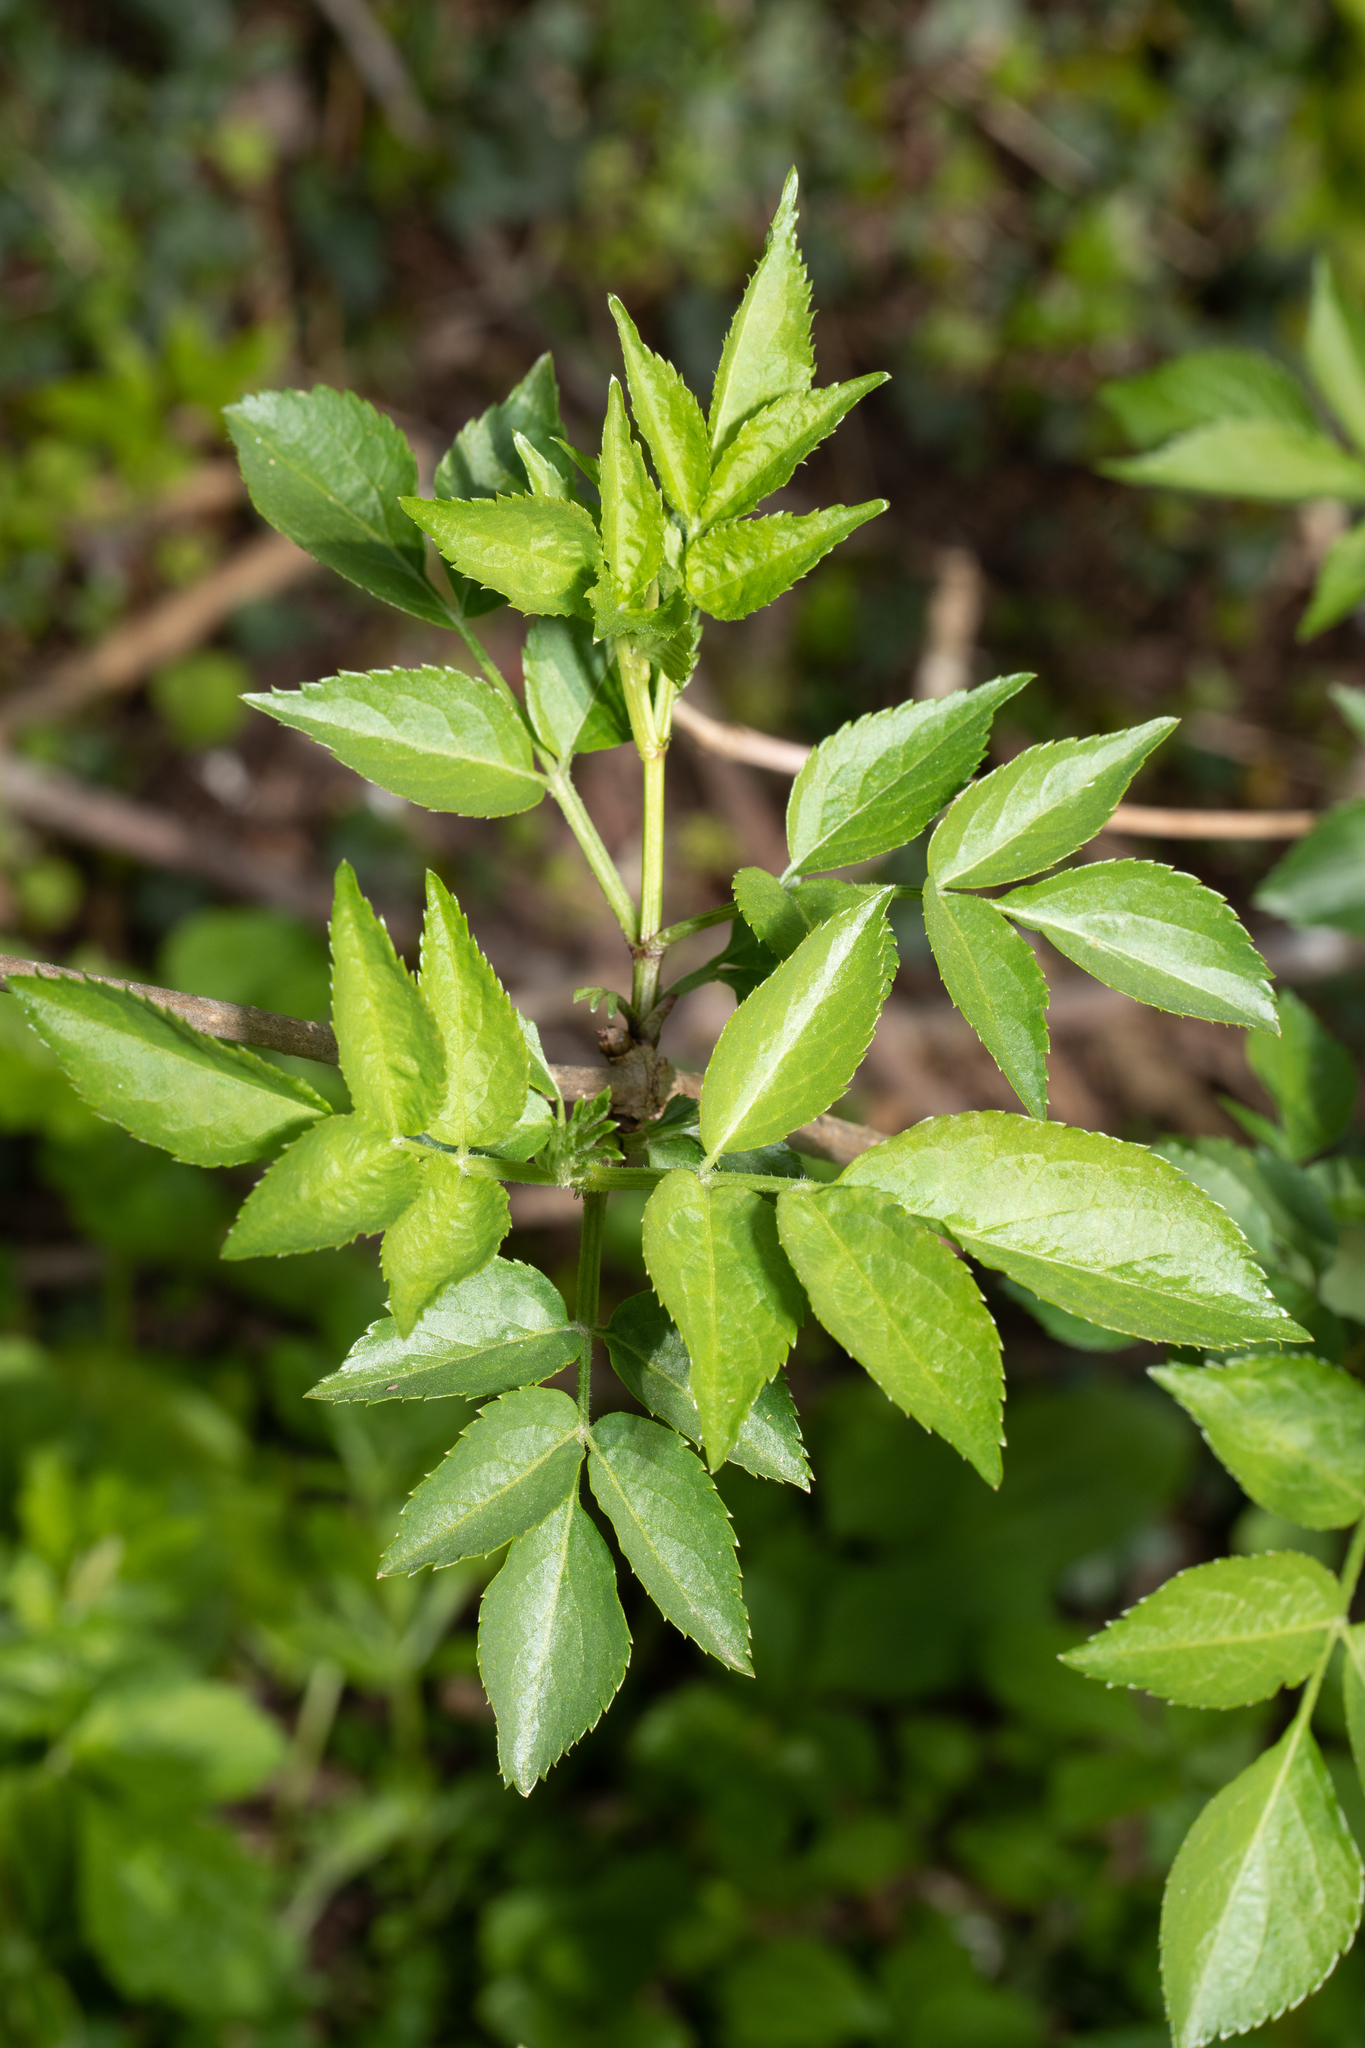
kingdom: Plantae
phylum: Tracheophyta
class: Magnoliopsida
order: Dipsacales
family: Viburnaceae
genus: Sambucus
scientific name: Sambucus nigra
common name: Elder
